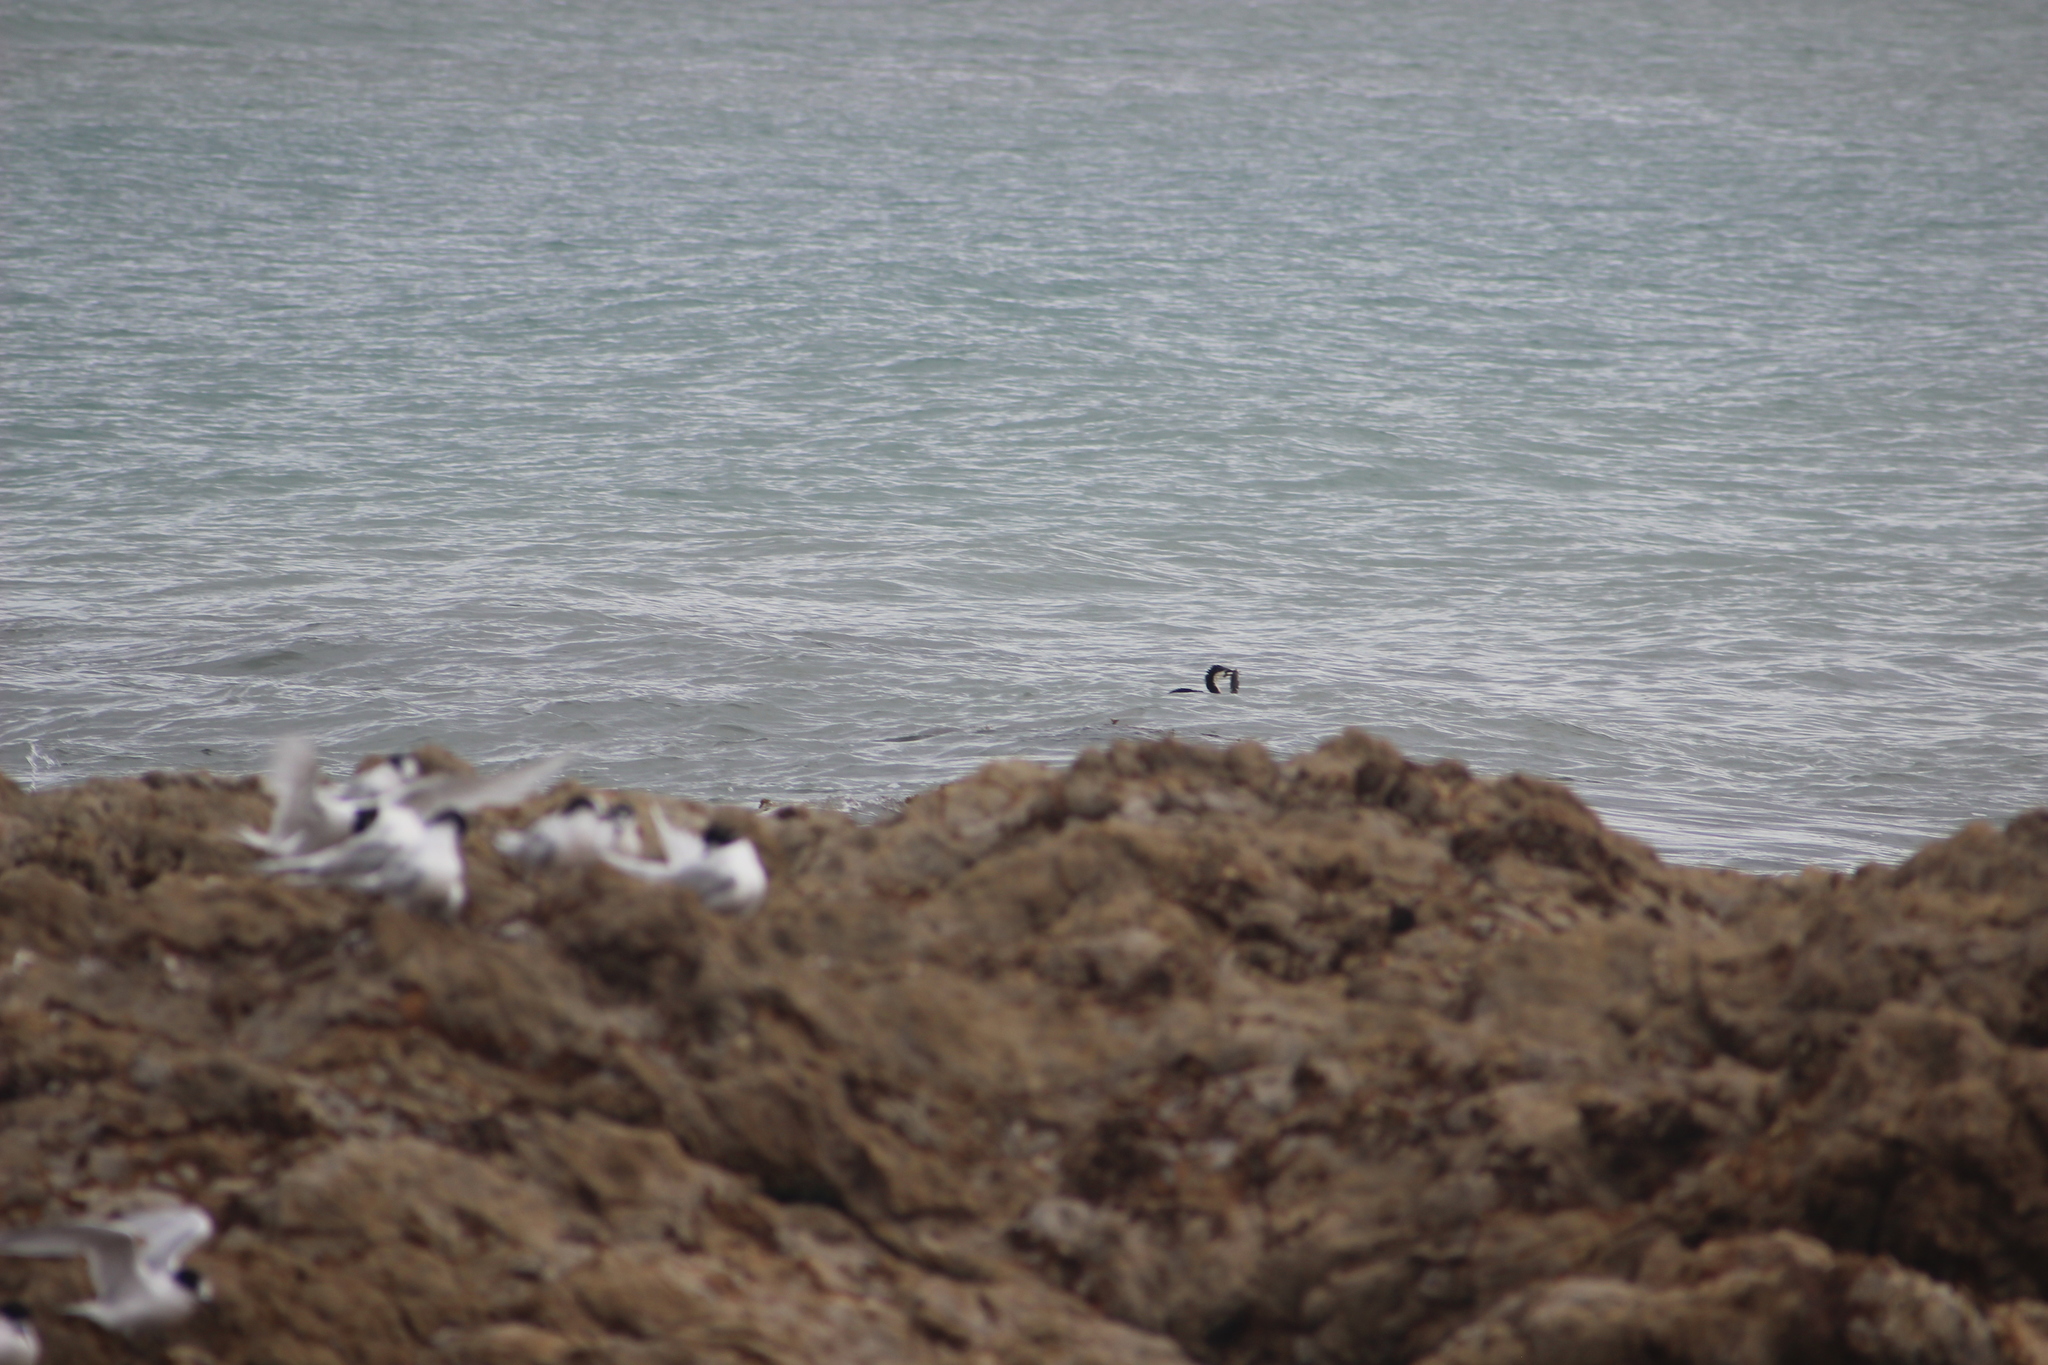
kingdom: Animalia
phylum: Chordata
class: Aves
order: Suliformes
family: Phalacrocoracidae
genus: Microcarbo
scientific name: Microcarbo melanoleucos
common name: Little pied cormorant
